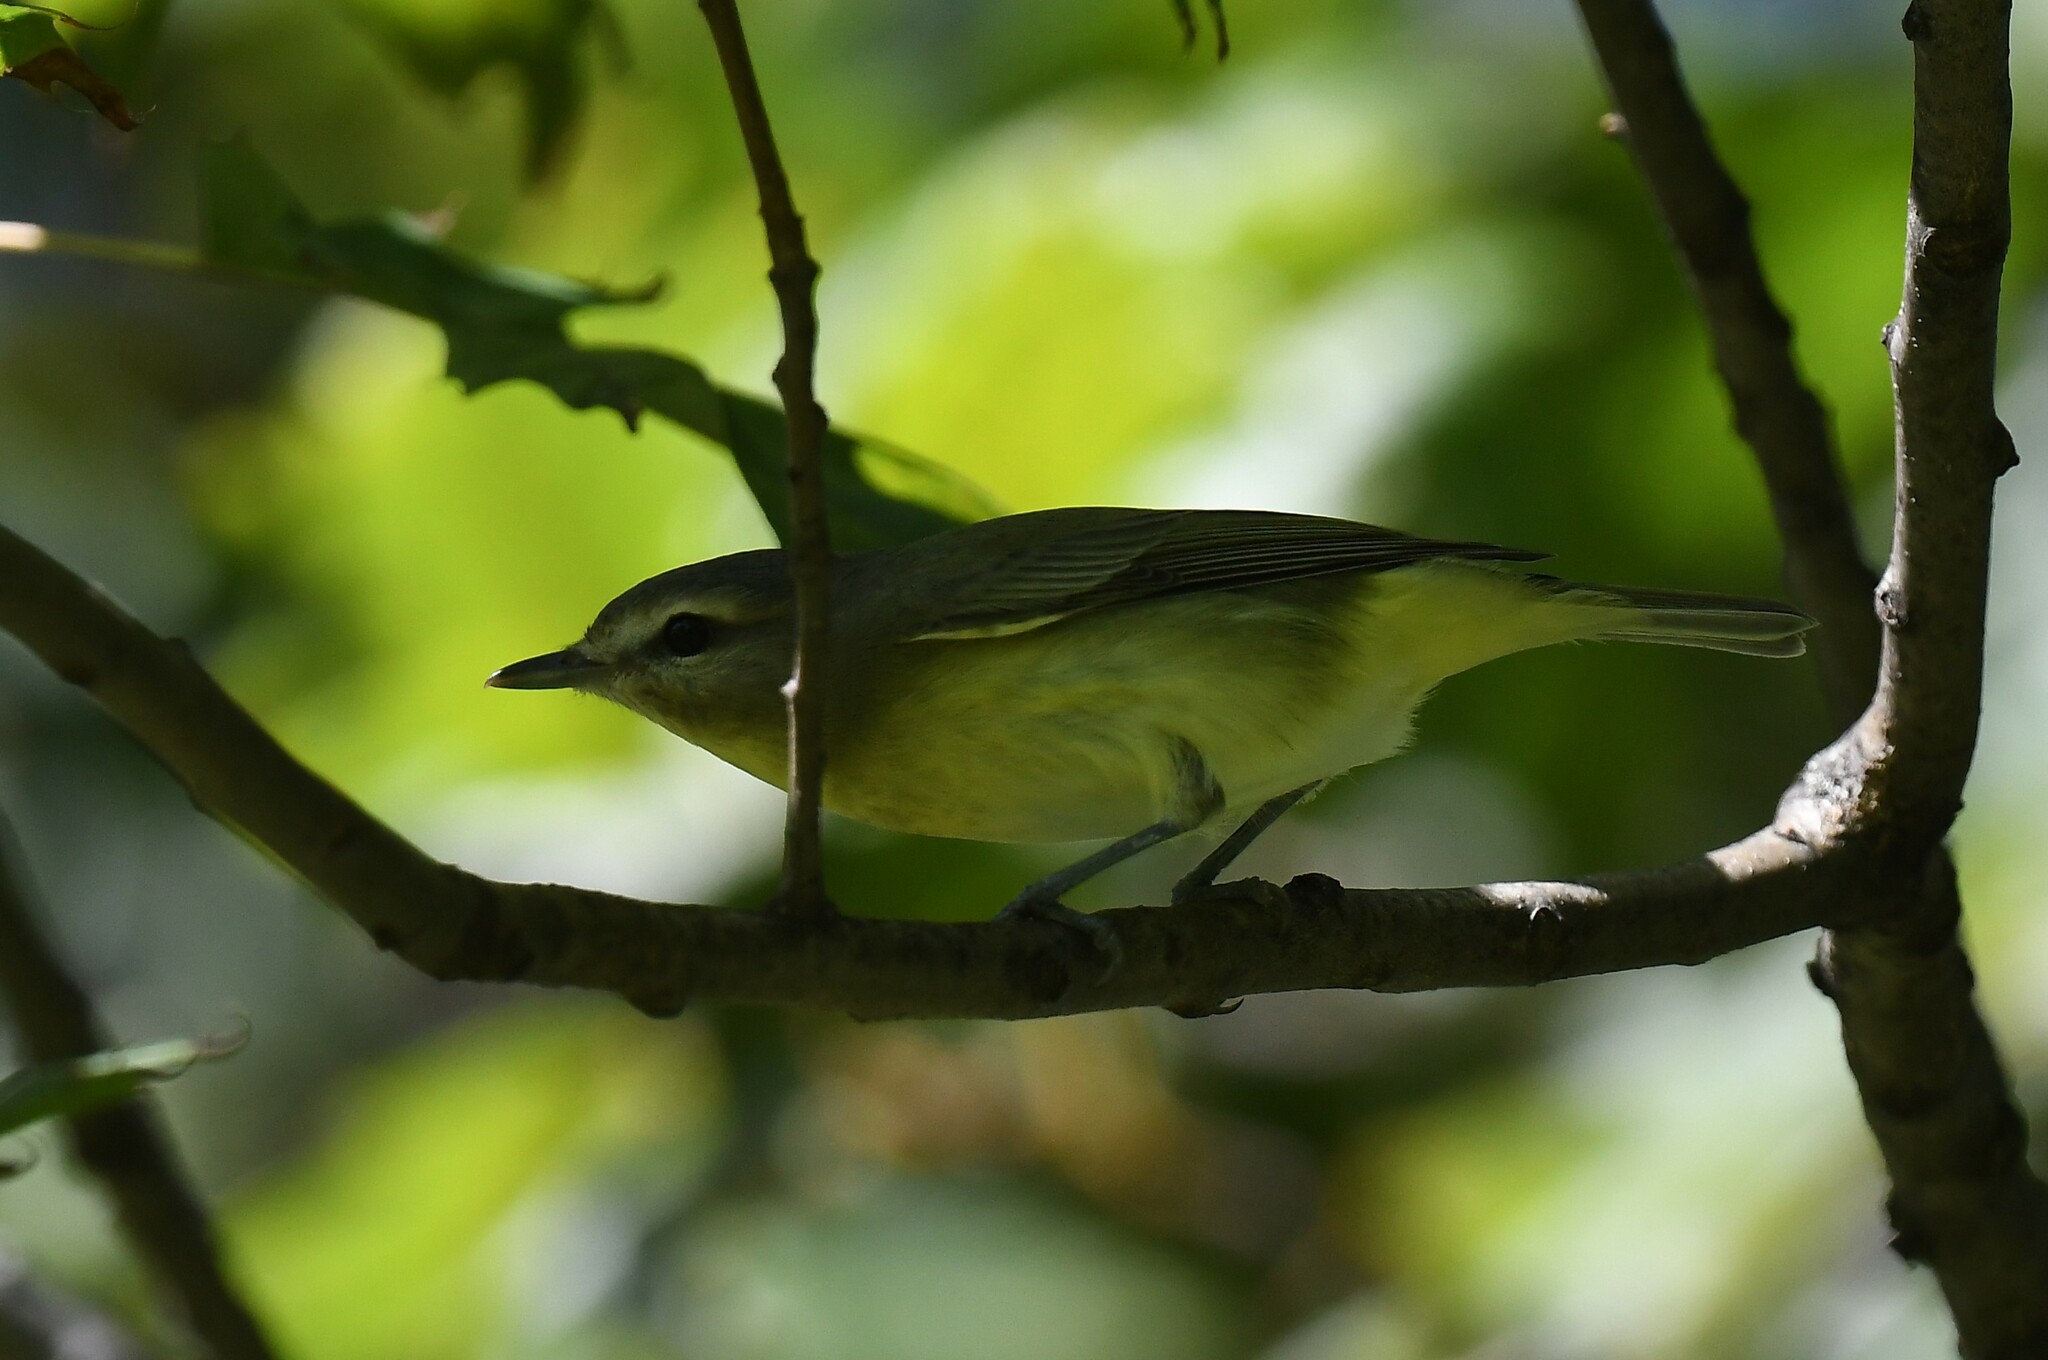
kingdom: Animalia
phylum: Chordata
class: Aves
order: Passeriformes
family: Vireonidae
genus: Vireo
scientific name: Vireo philadelphicus
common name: Philadelphia vireo
